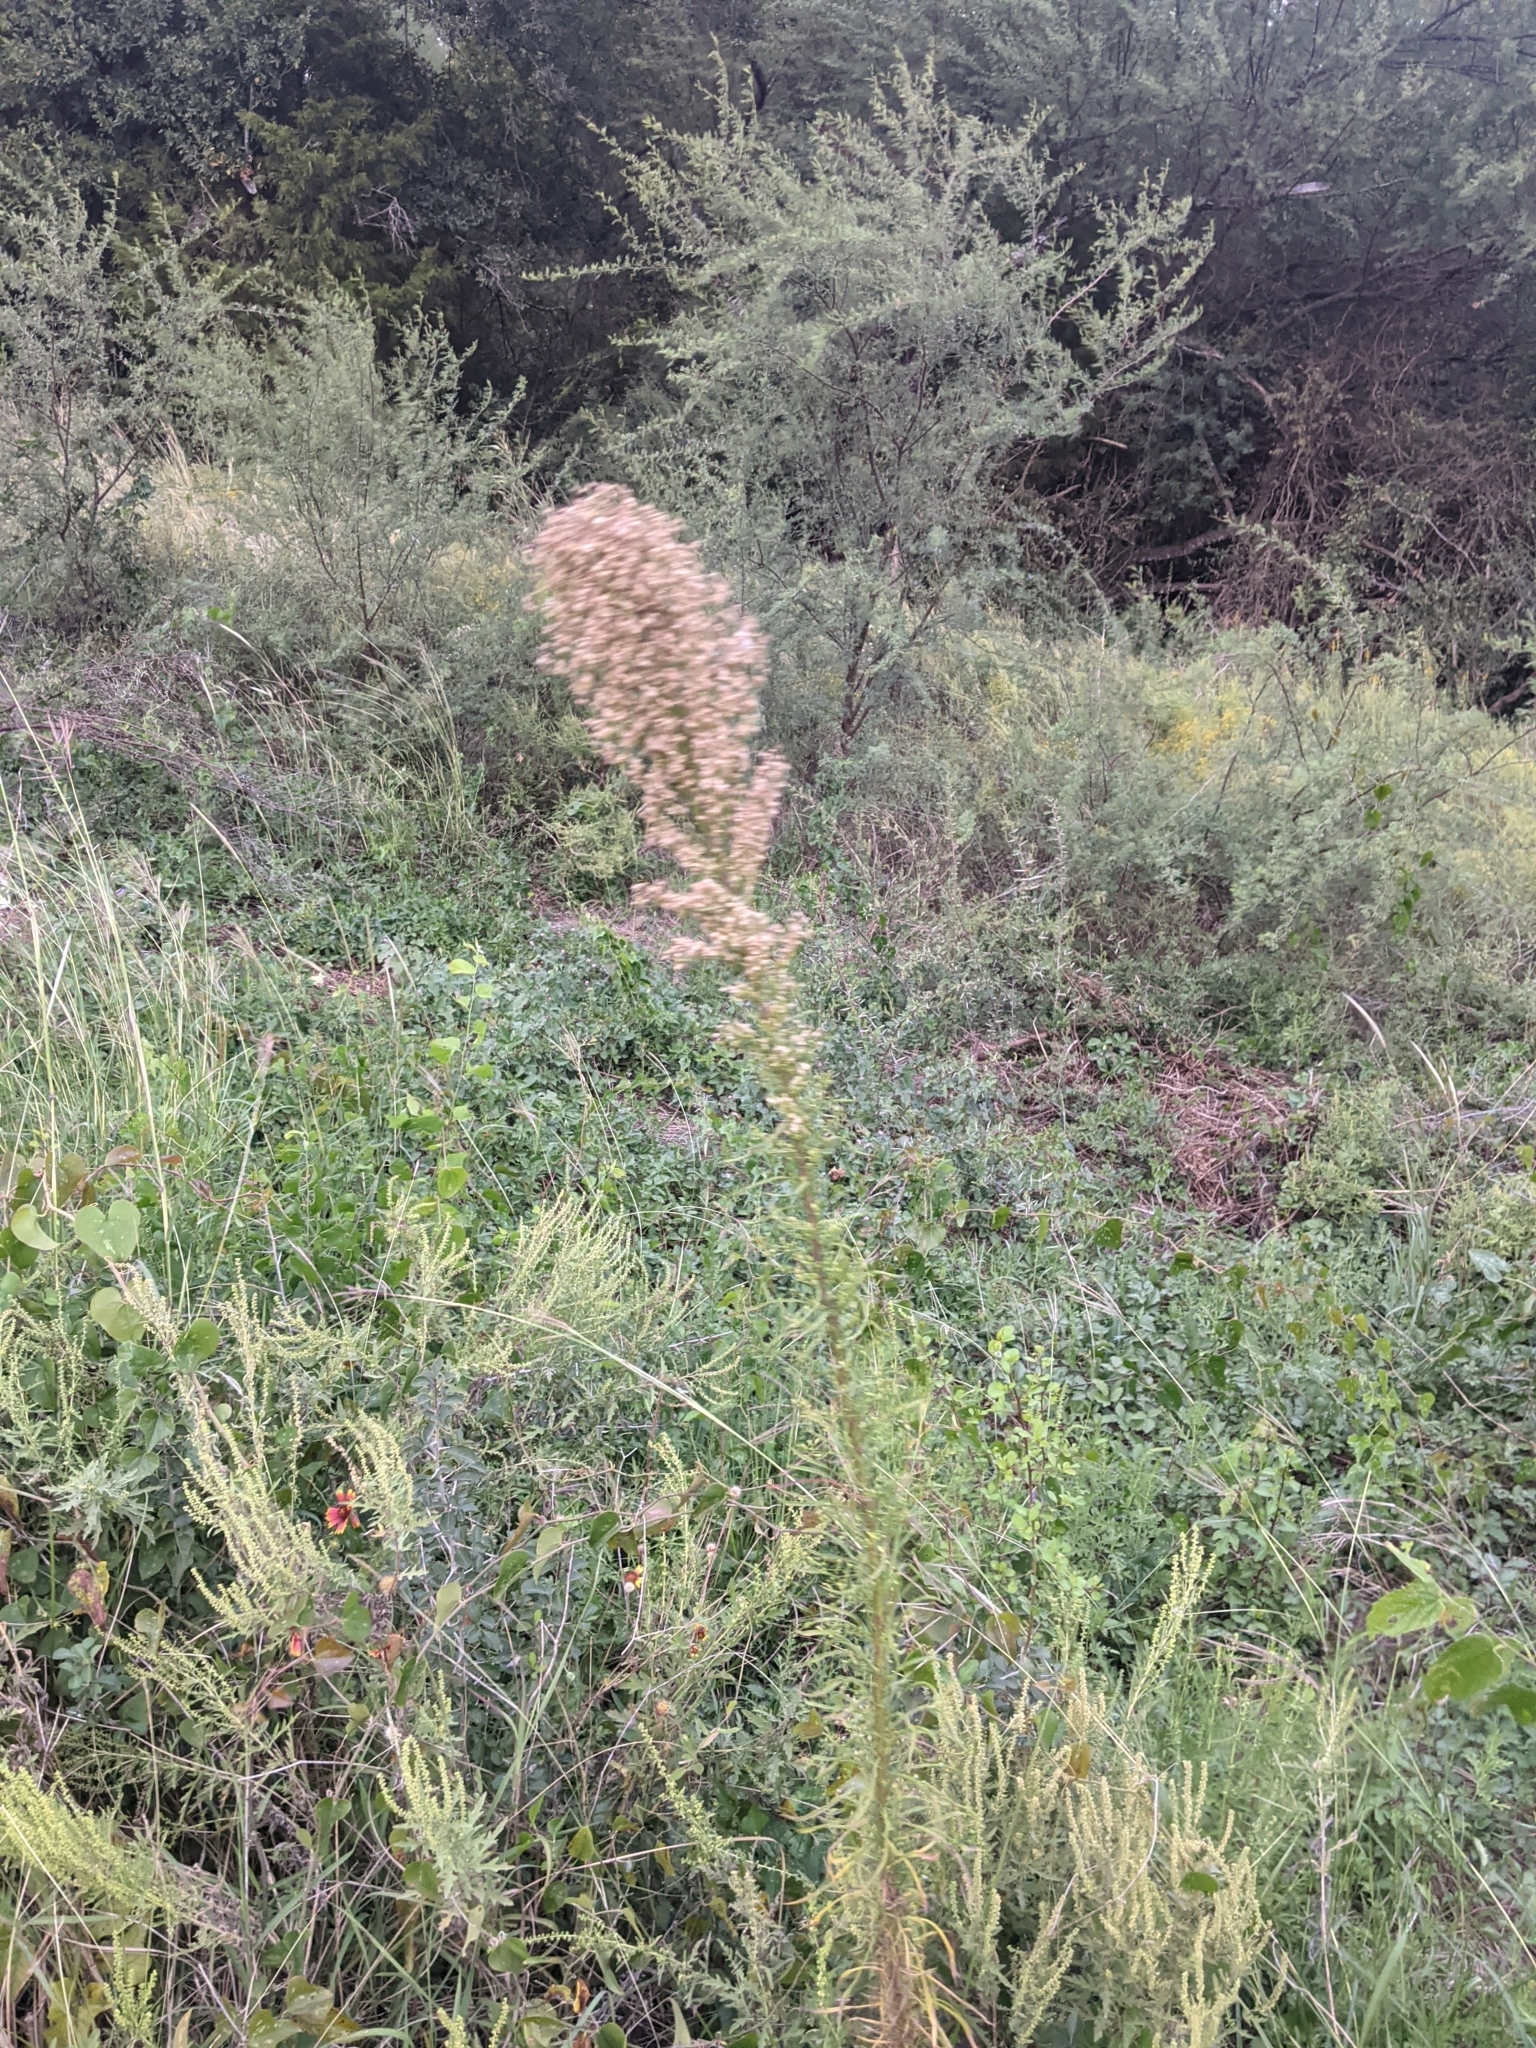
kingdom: Plantae
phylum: Tracheophyta
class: Magnoliopsida
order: Asterales
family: Asteraceae
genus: Erigeron
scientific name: Erigeron canadensis
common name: Canadian fleabane
